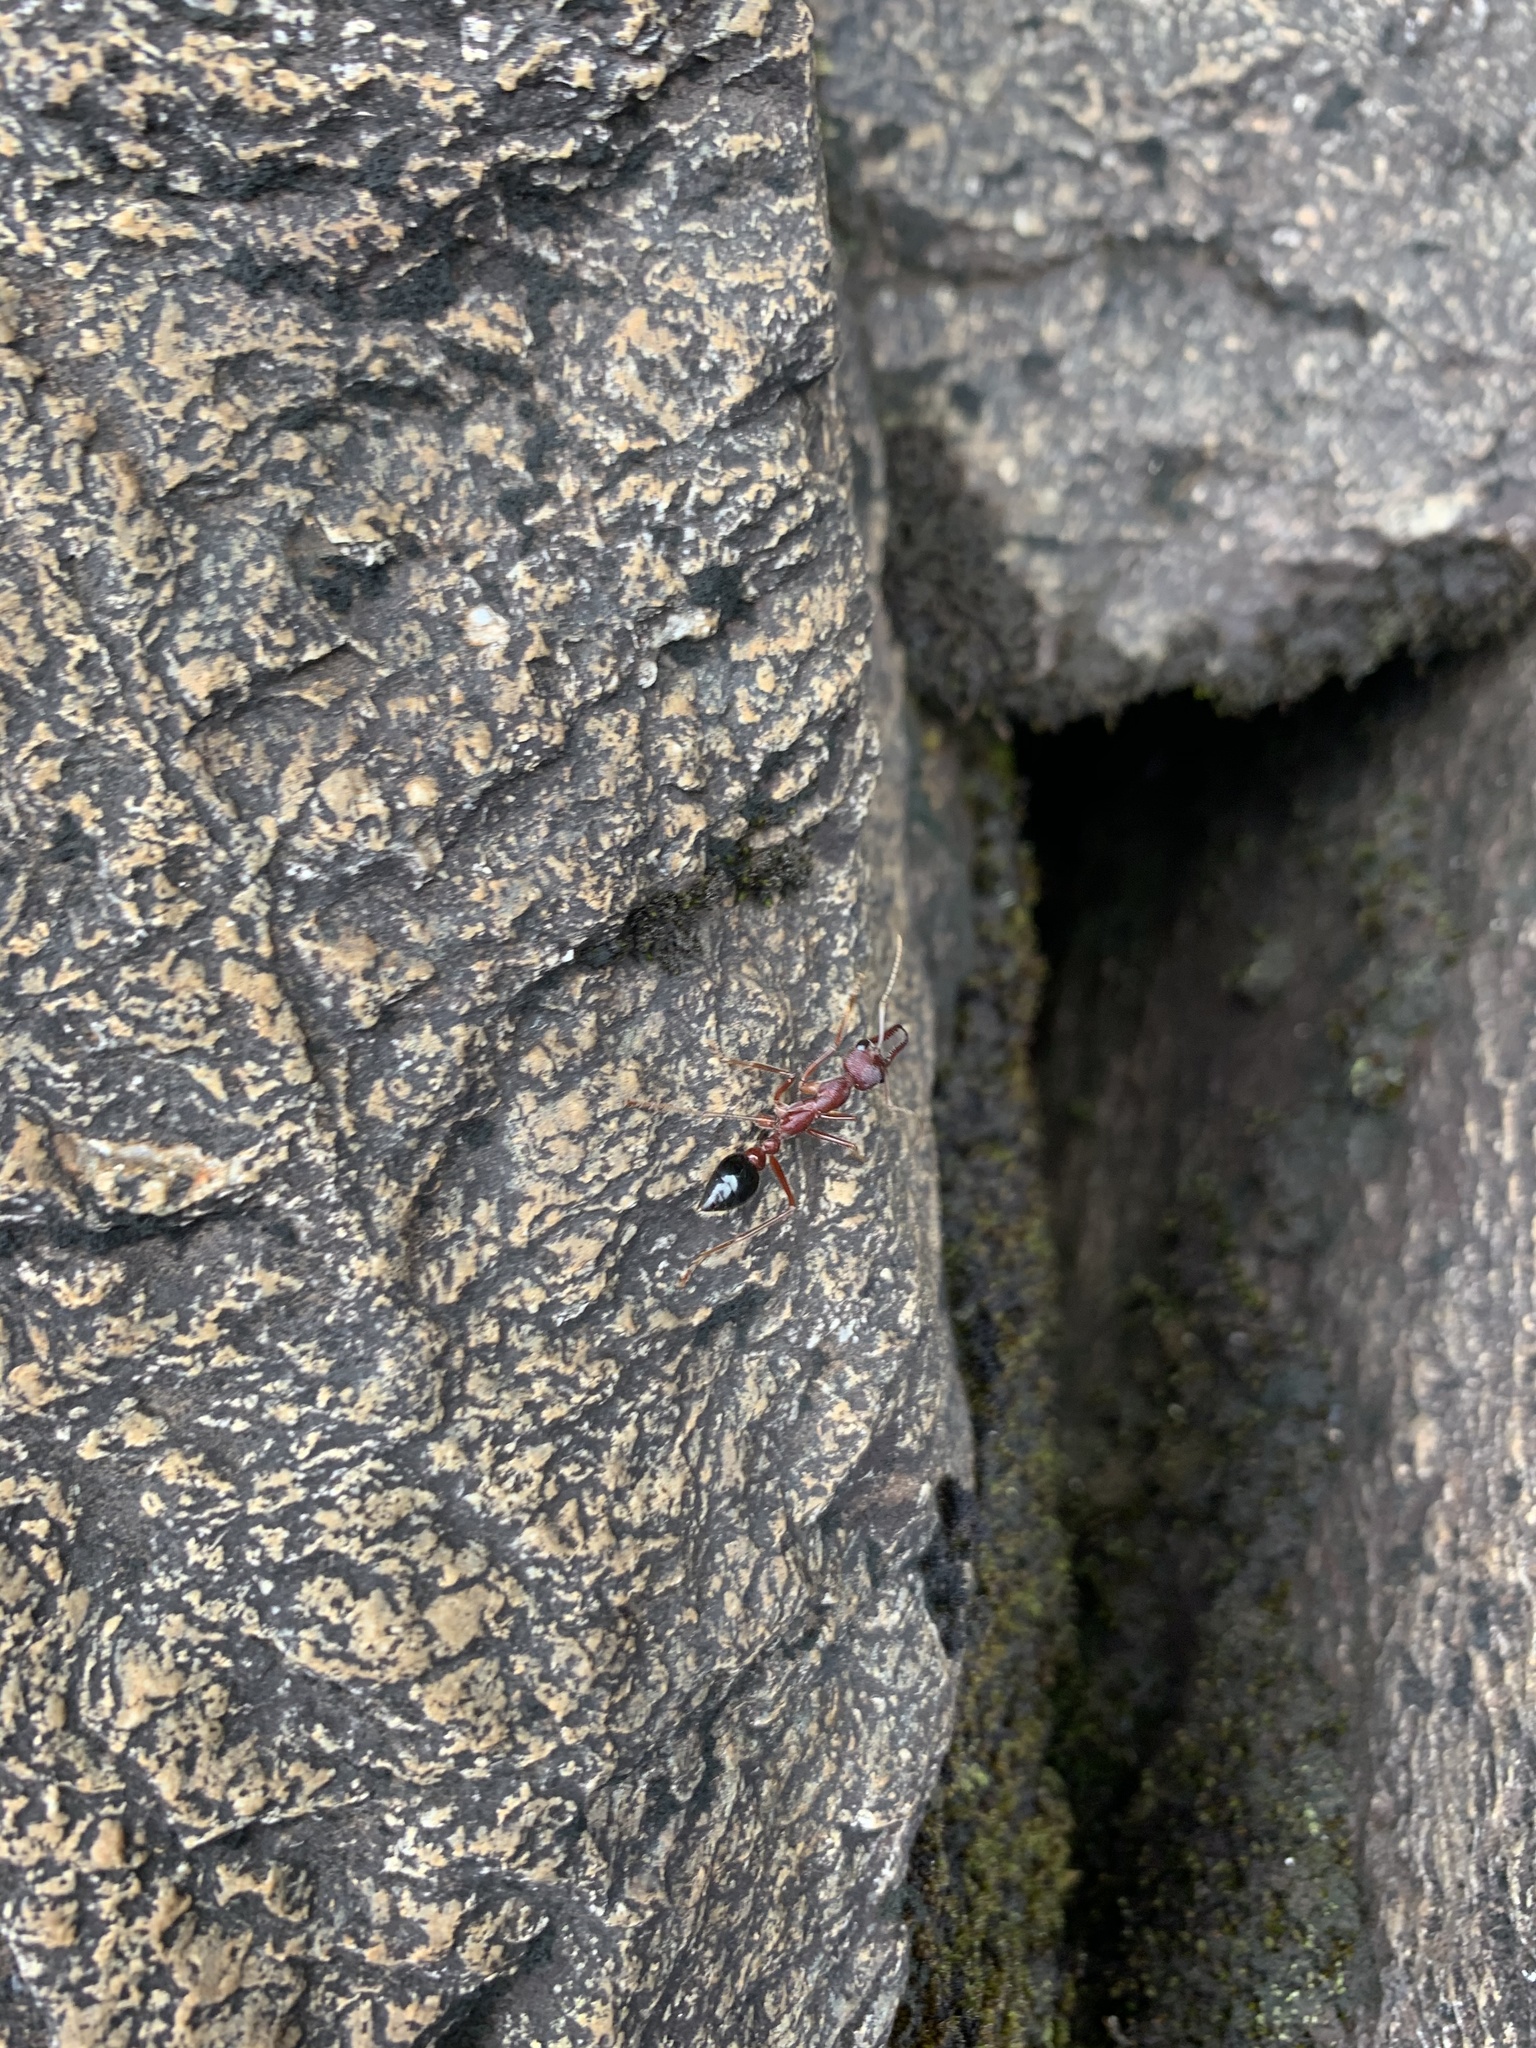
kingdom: Animalia
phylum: Arthropoda
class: Insecta
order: Hymenoptera
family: Formicidae
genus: Myrmecia
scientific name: Myrmecia forficata
